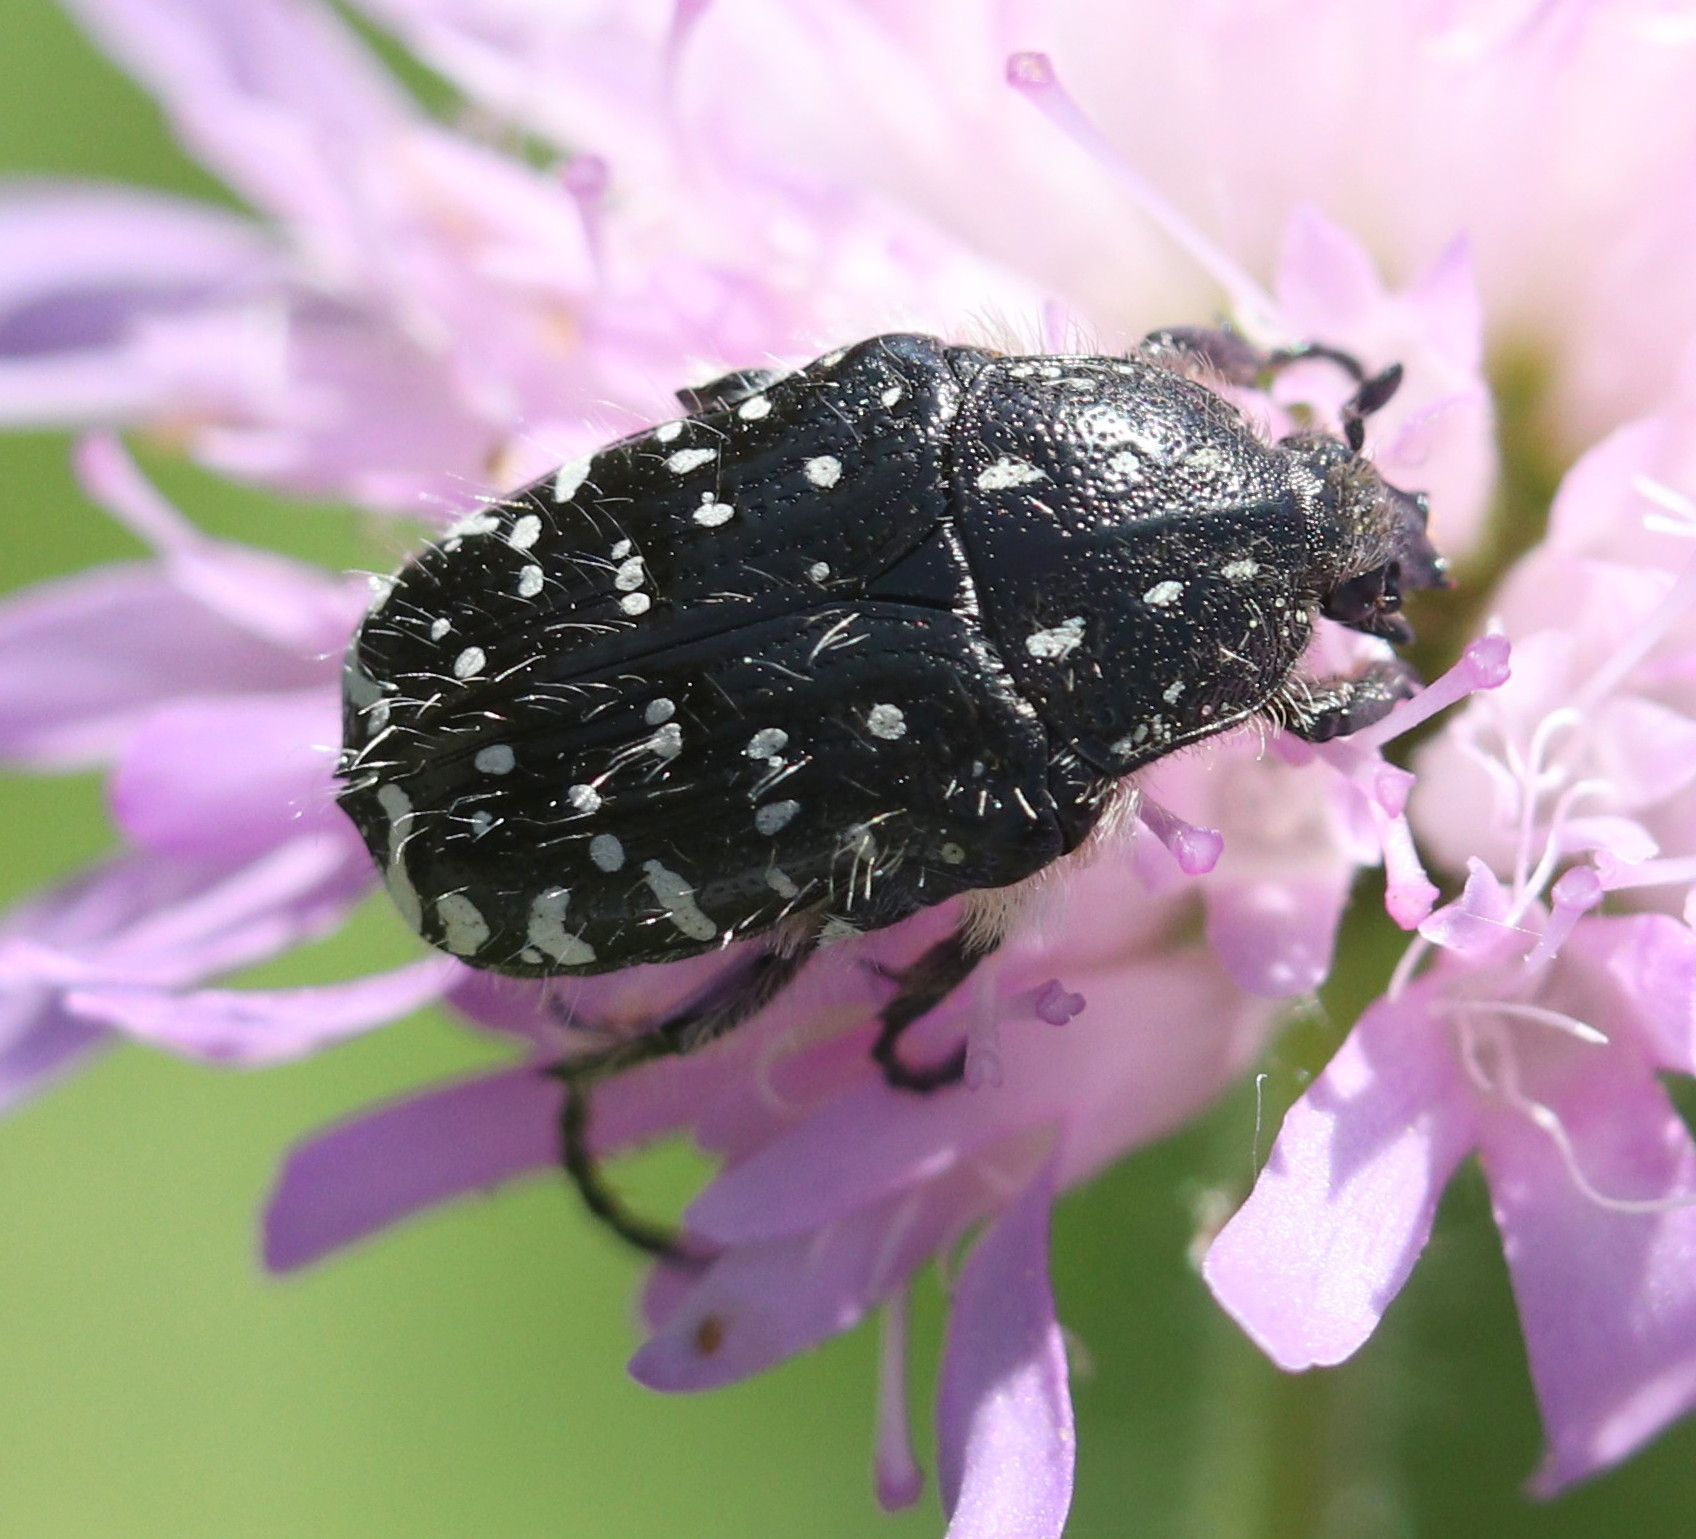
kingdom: Animalia
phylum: Arthropoda
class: Insecta
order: Coleoptera
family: Scarabaeidae
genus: Oxythyrea
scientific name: Oxythyrea funesta
